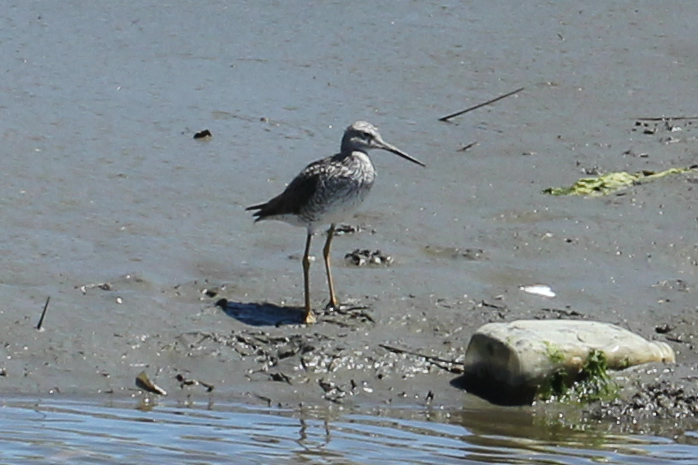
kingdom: Animalia
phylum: Chordata
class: Aves
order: Charadriiformes
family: Scolopacidae
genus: Tringa
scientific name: Tringa melanoleuca
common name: Greater yellowlegs
